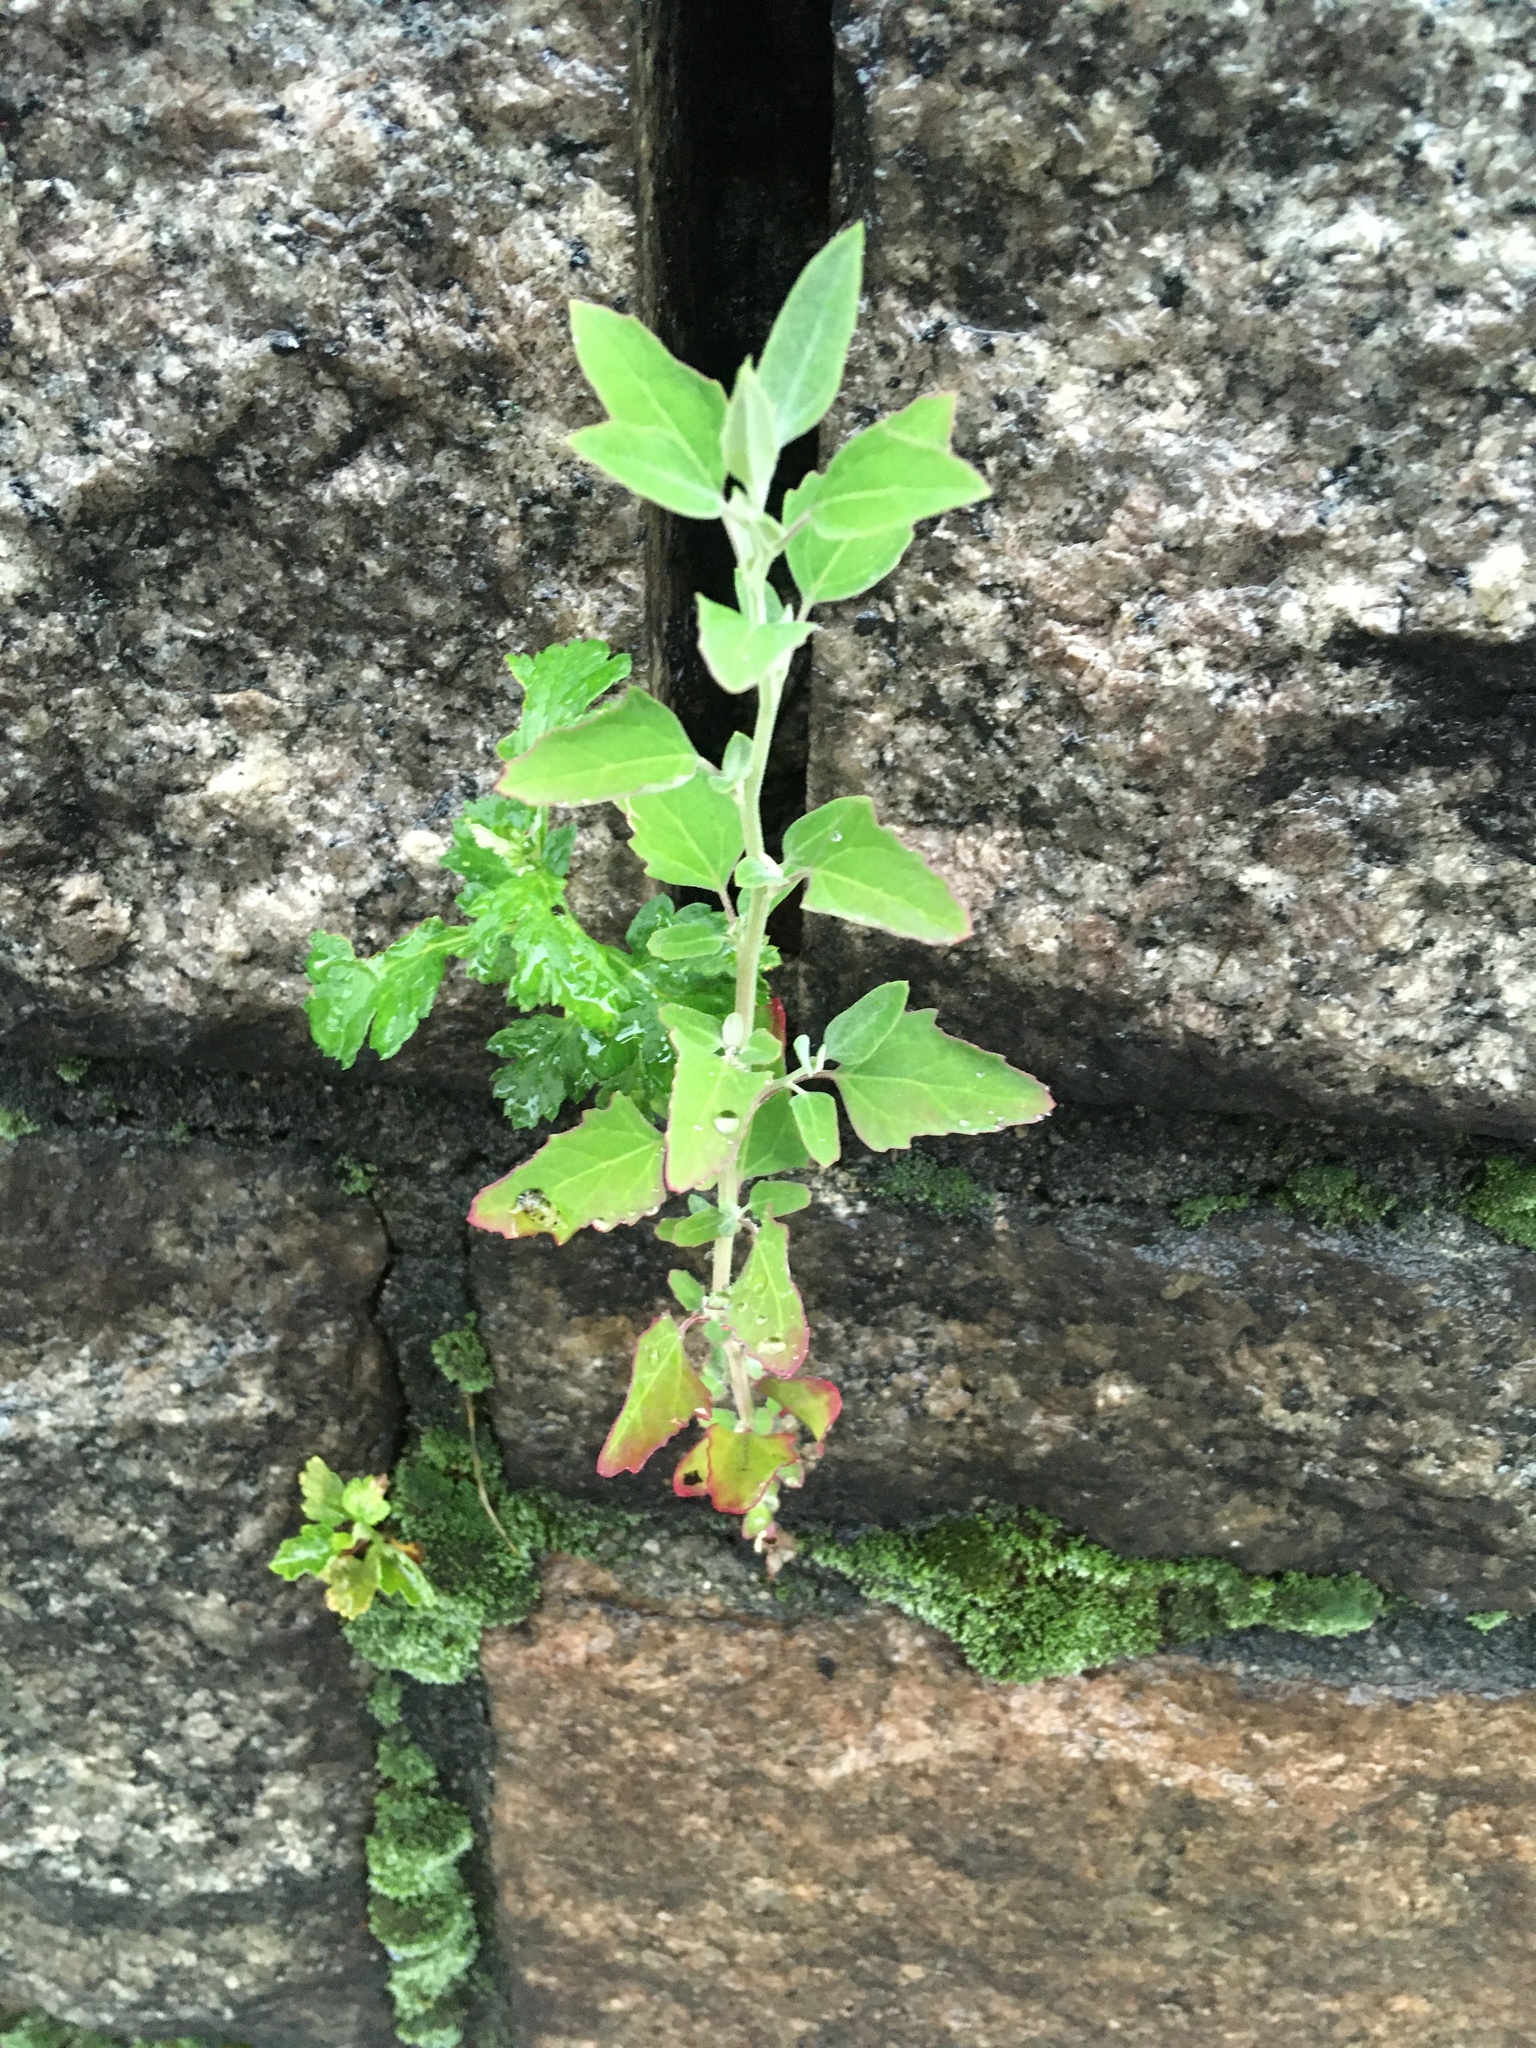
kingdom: Plantae
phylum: Tracheophyta
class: Magnoliopsida
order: Caryophyllales
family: Amaranthaceae
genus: Chenopodium
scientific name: Chenopodium album
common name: Fat-hen
